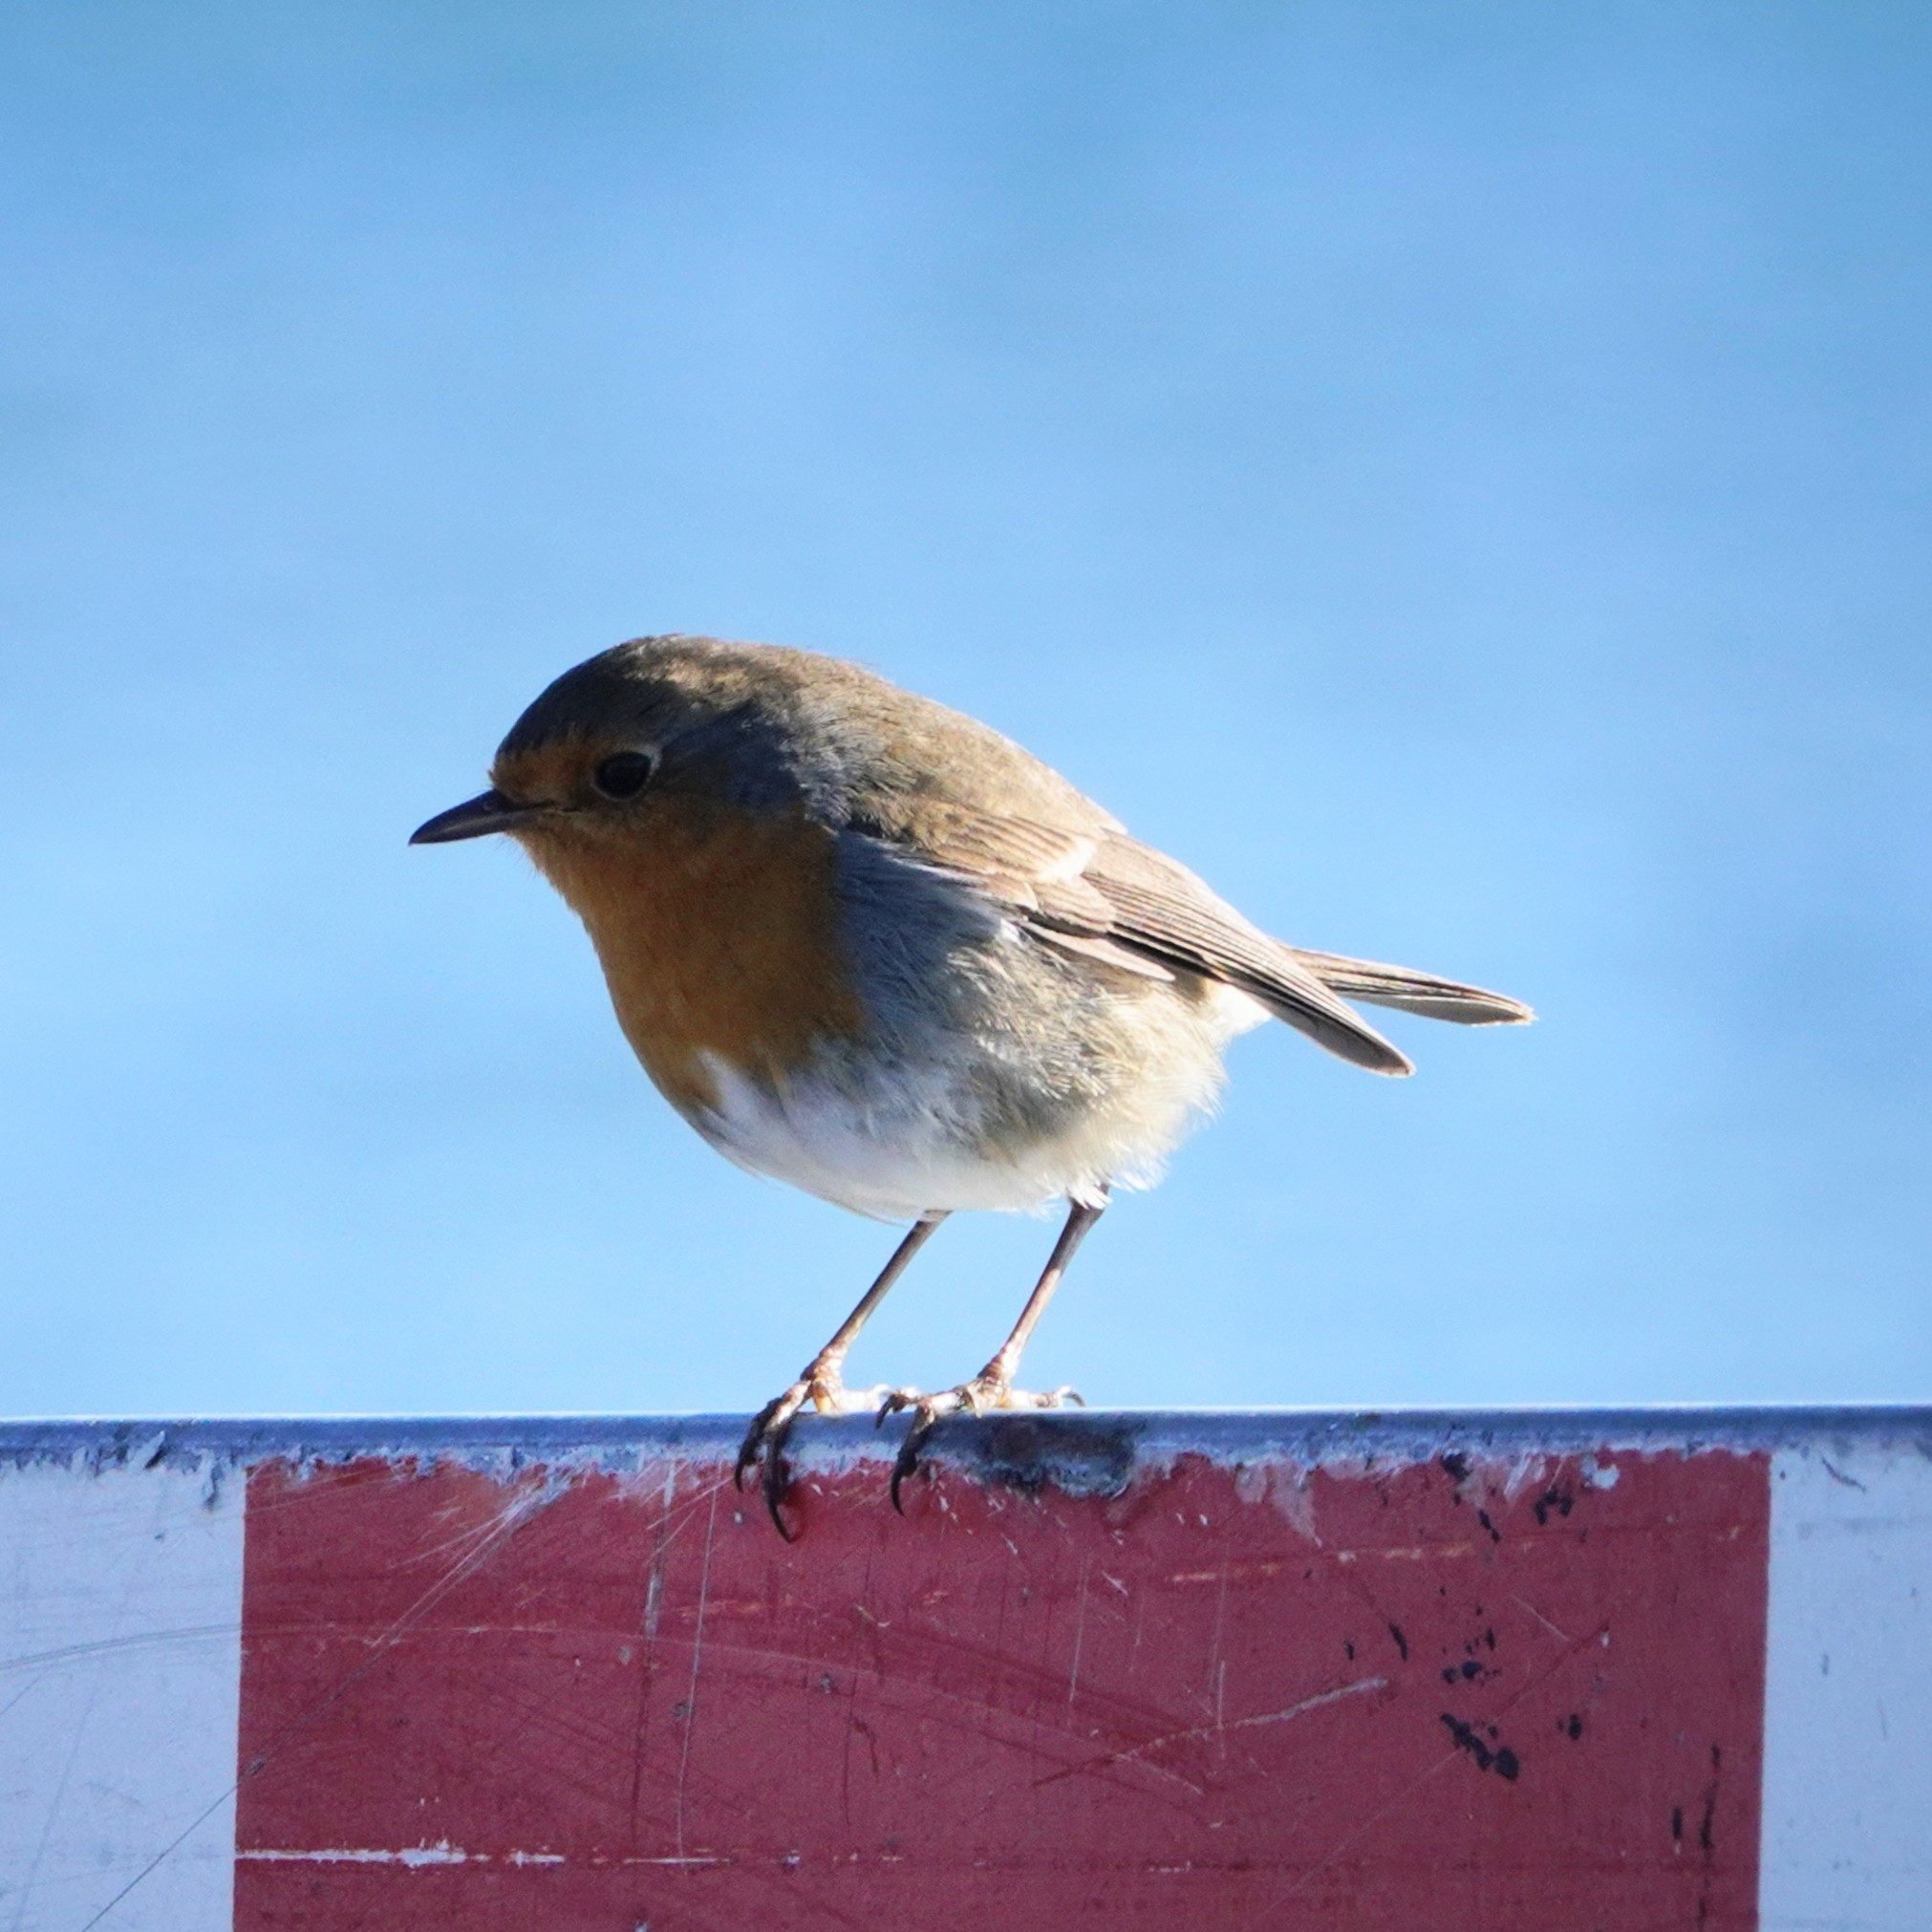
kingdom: Animalia
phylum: Chordata
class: Aves
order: Passeriformes
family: Muscicapidae
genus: Erithacus
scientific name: Erithacus rubecula
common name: European robin
